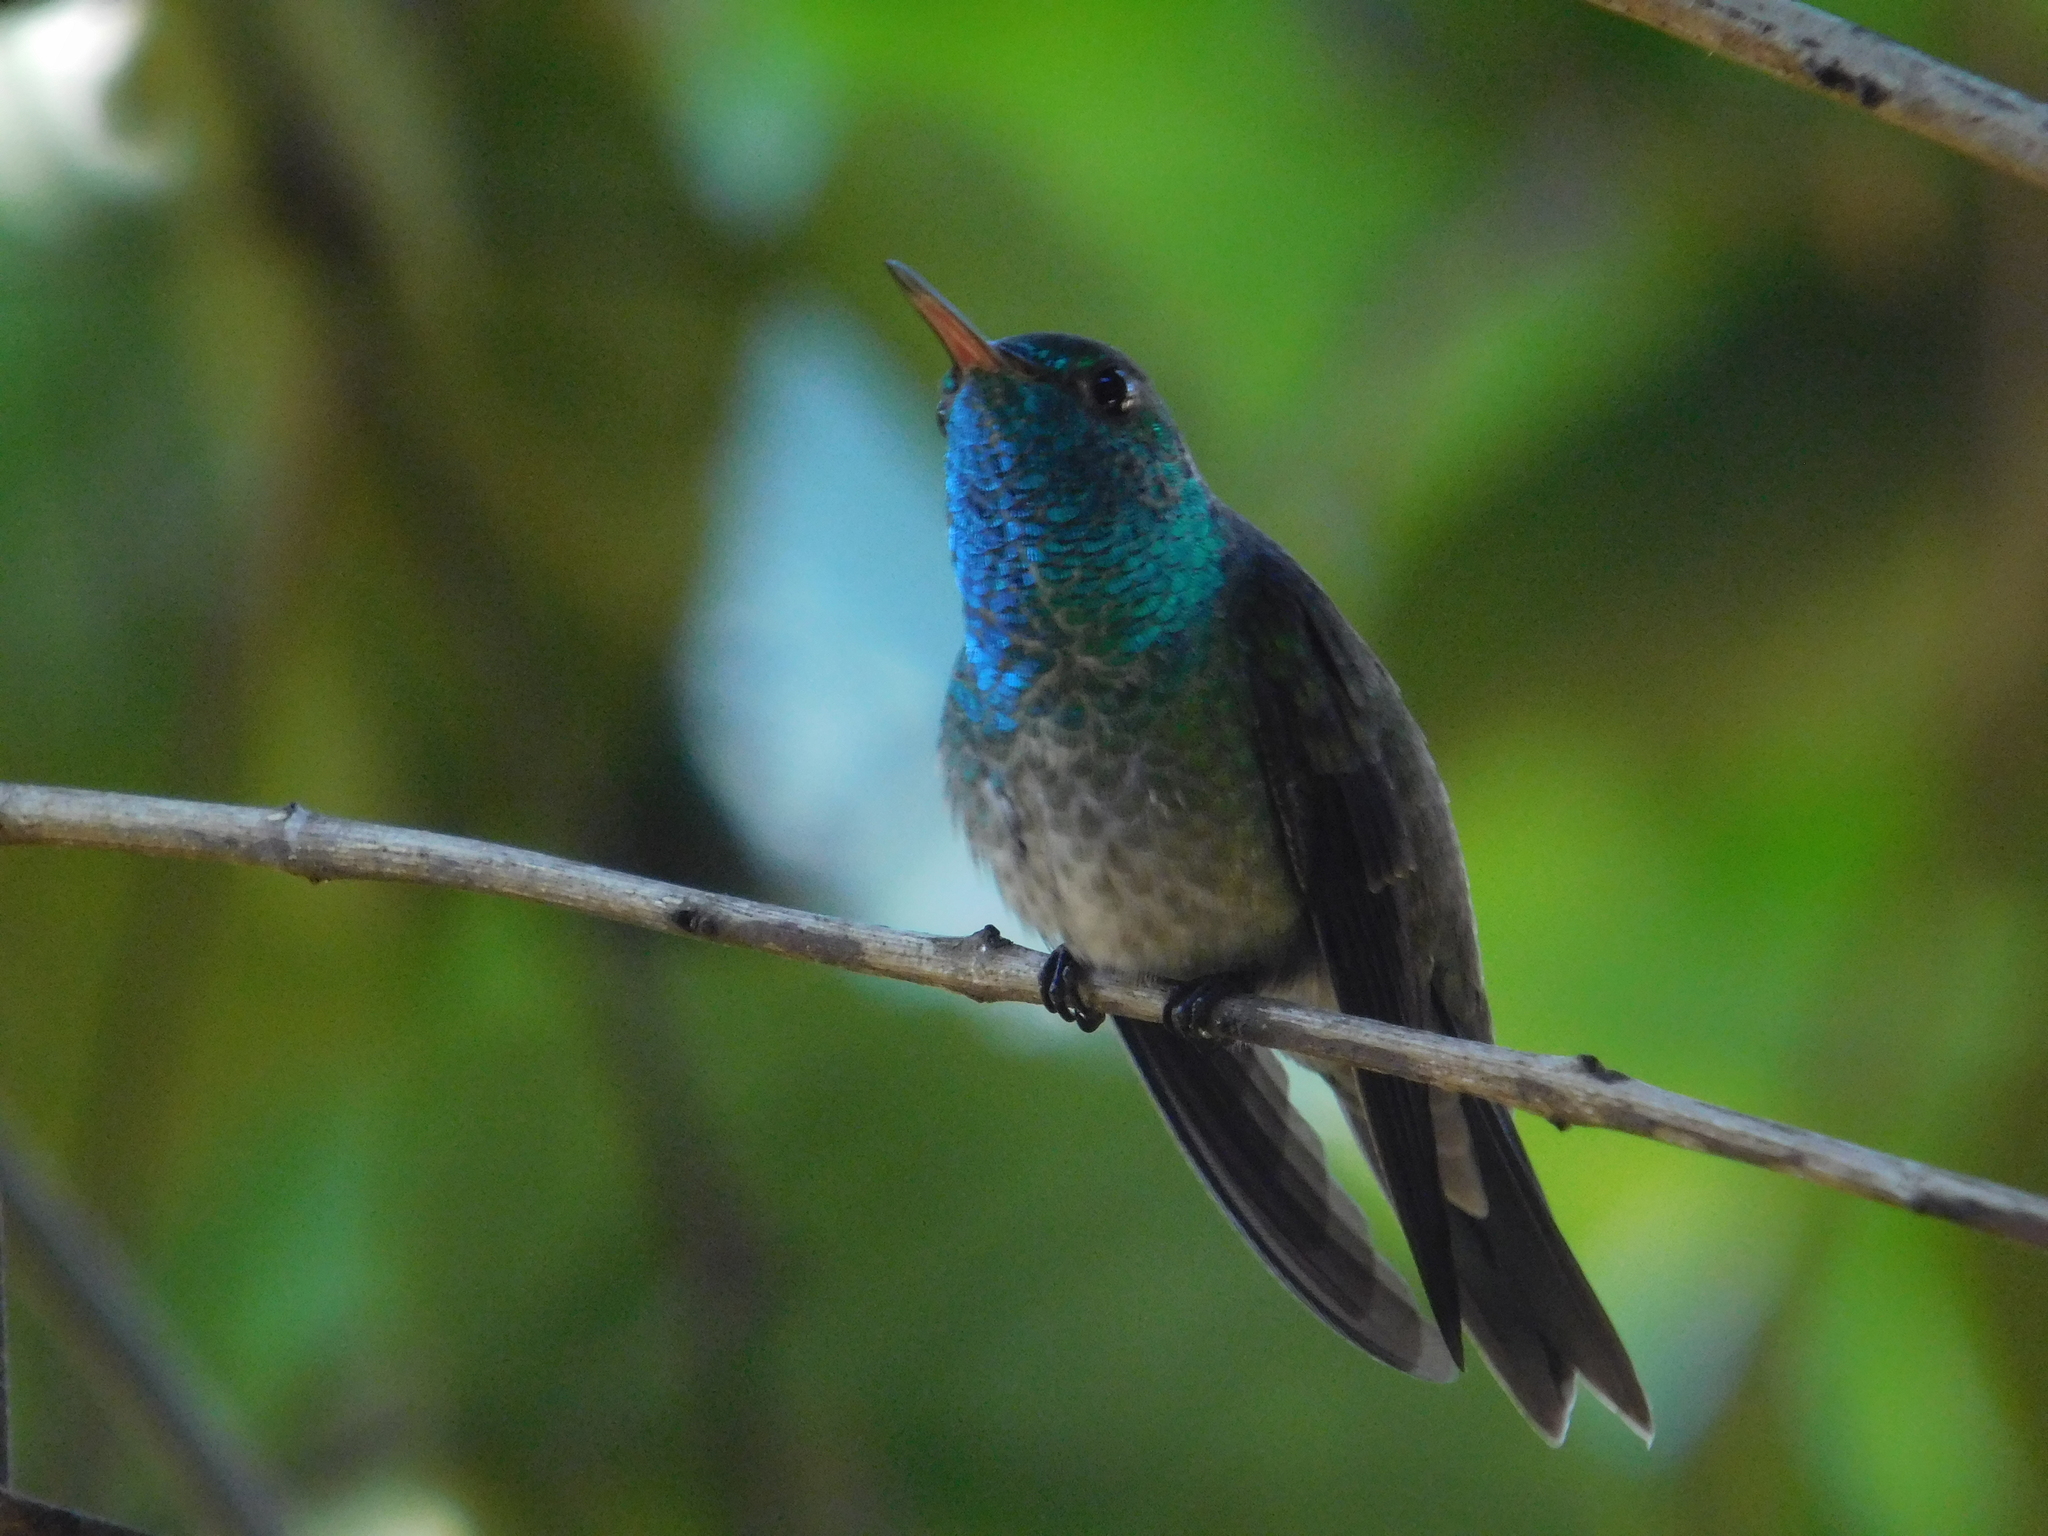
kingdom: Animalia
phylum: Chordata
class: Aves
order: Apodiformes
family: Trochilidae
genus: Chrysuronia
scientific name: Chrysuronia versicolor
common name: Versicolored emerald
